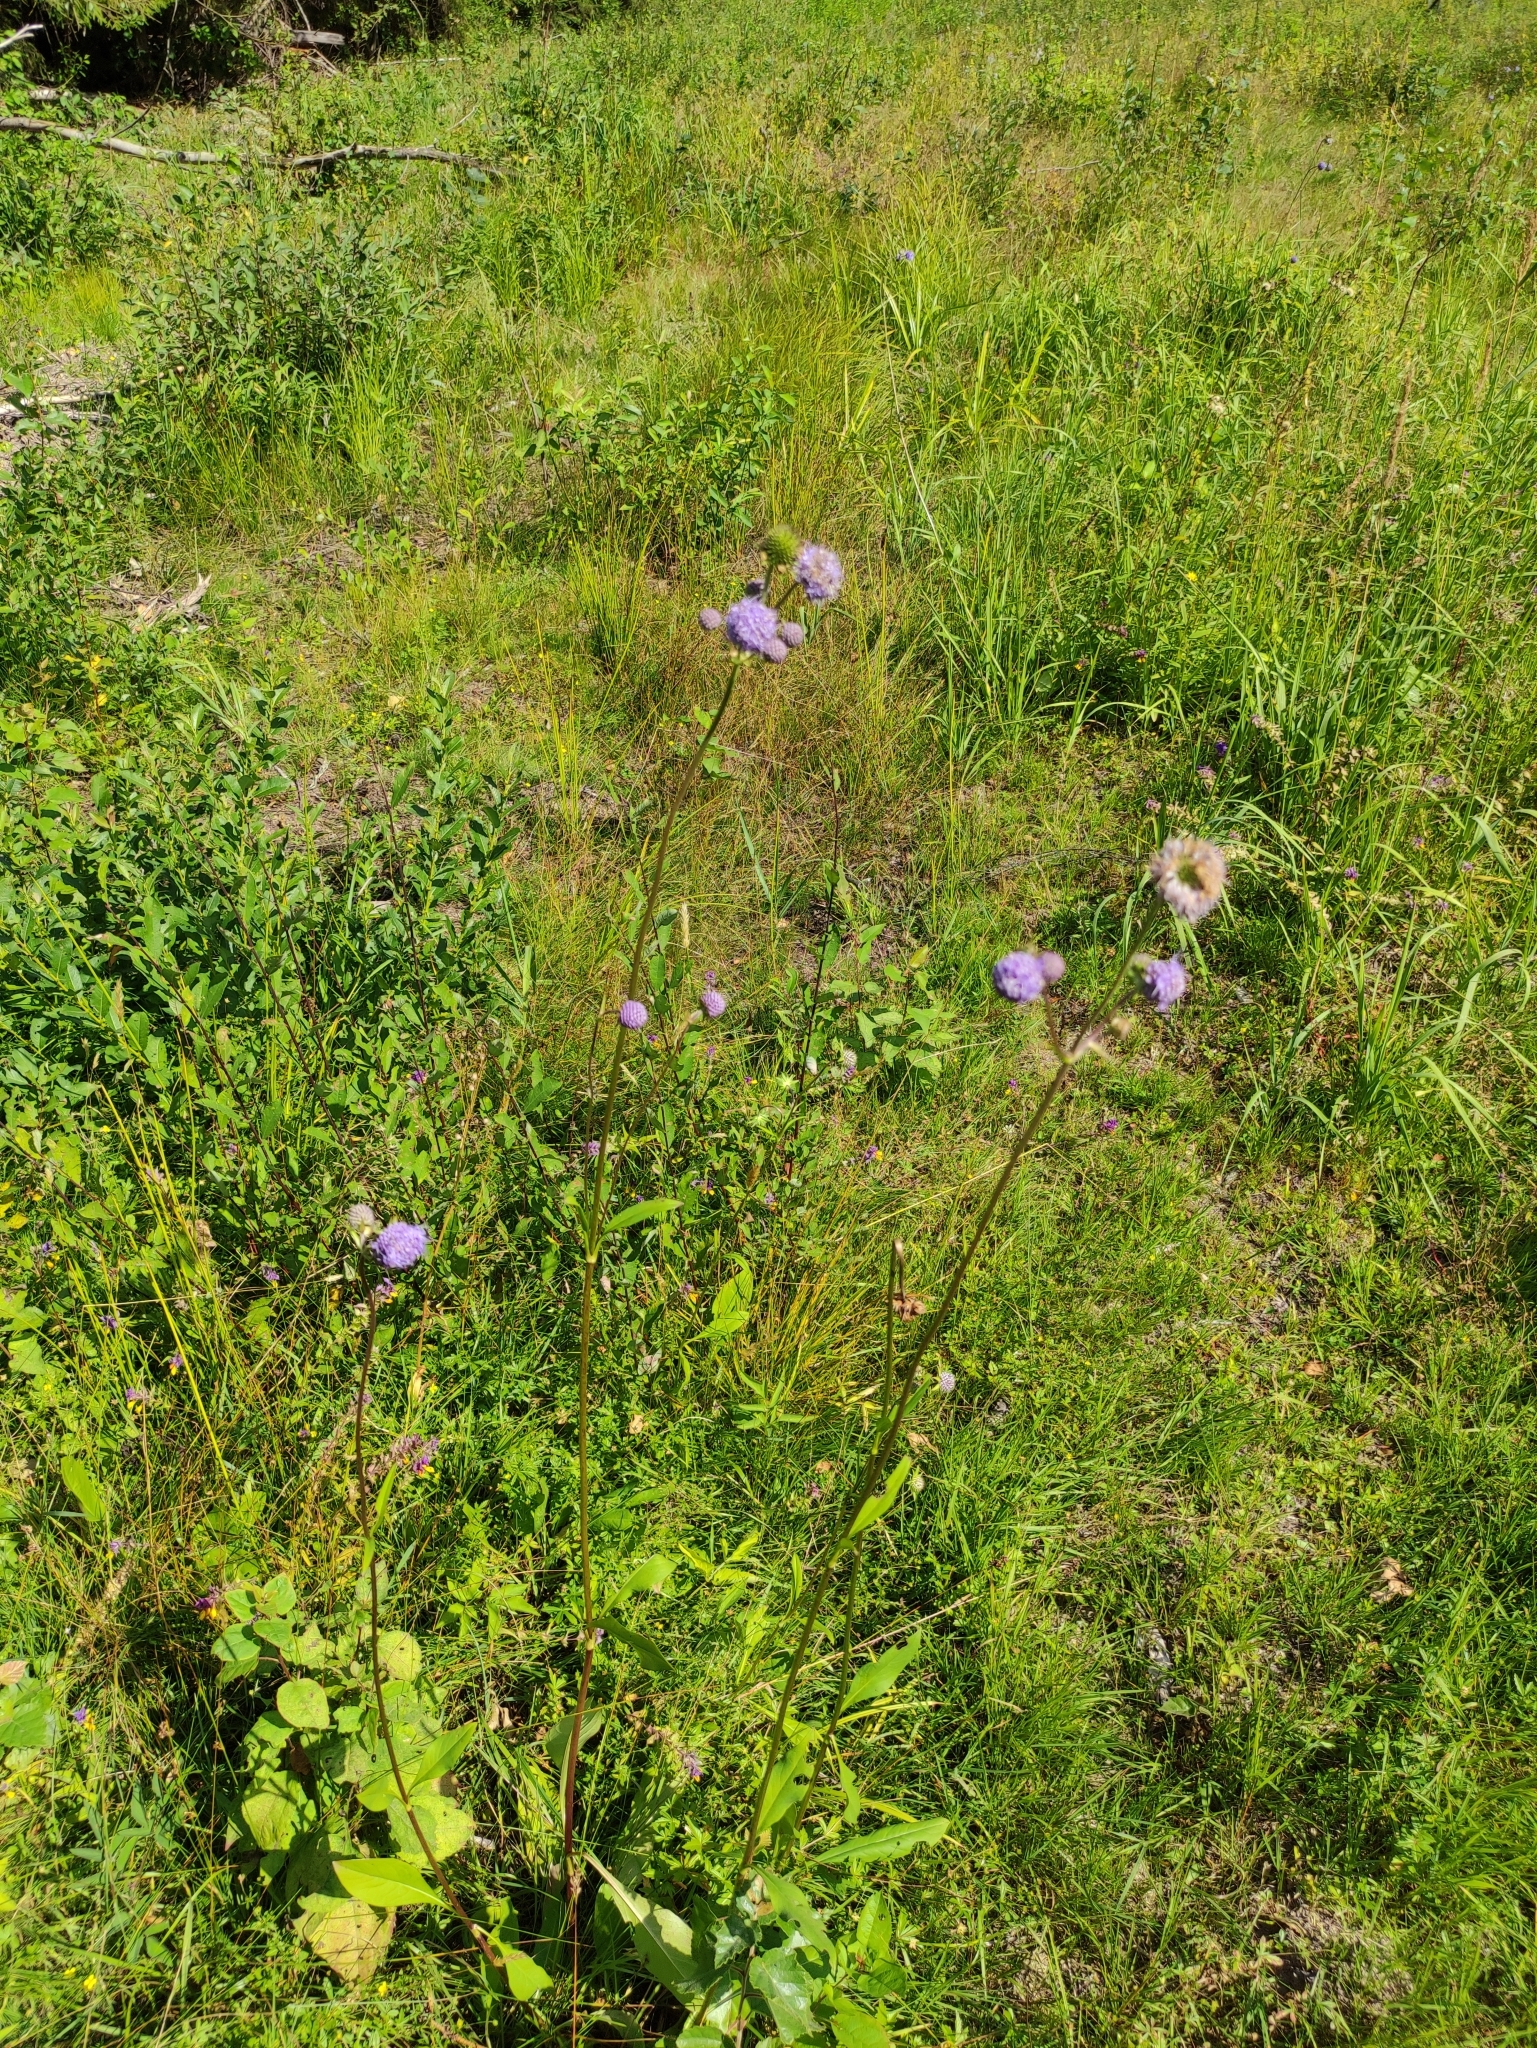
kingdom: Plantae
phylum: Tracheophyta
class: Magnoliopsida
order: Dipsacales
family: Caprifoliaceae
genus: Succisa
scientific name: Succisa pratensis
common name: Devil's-bit
